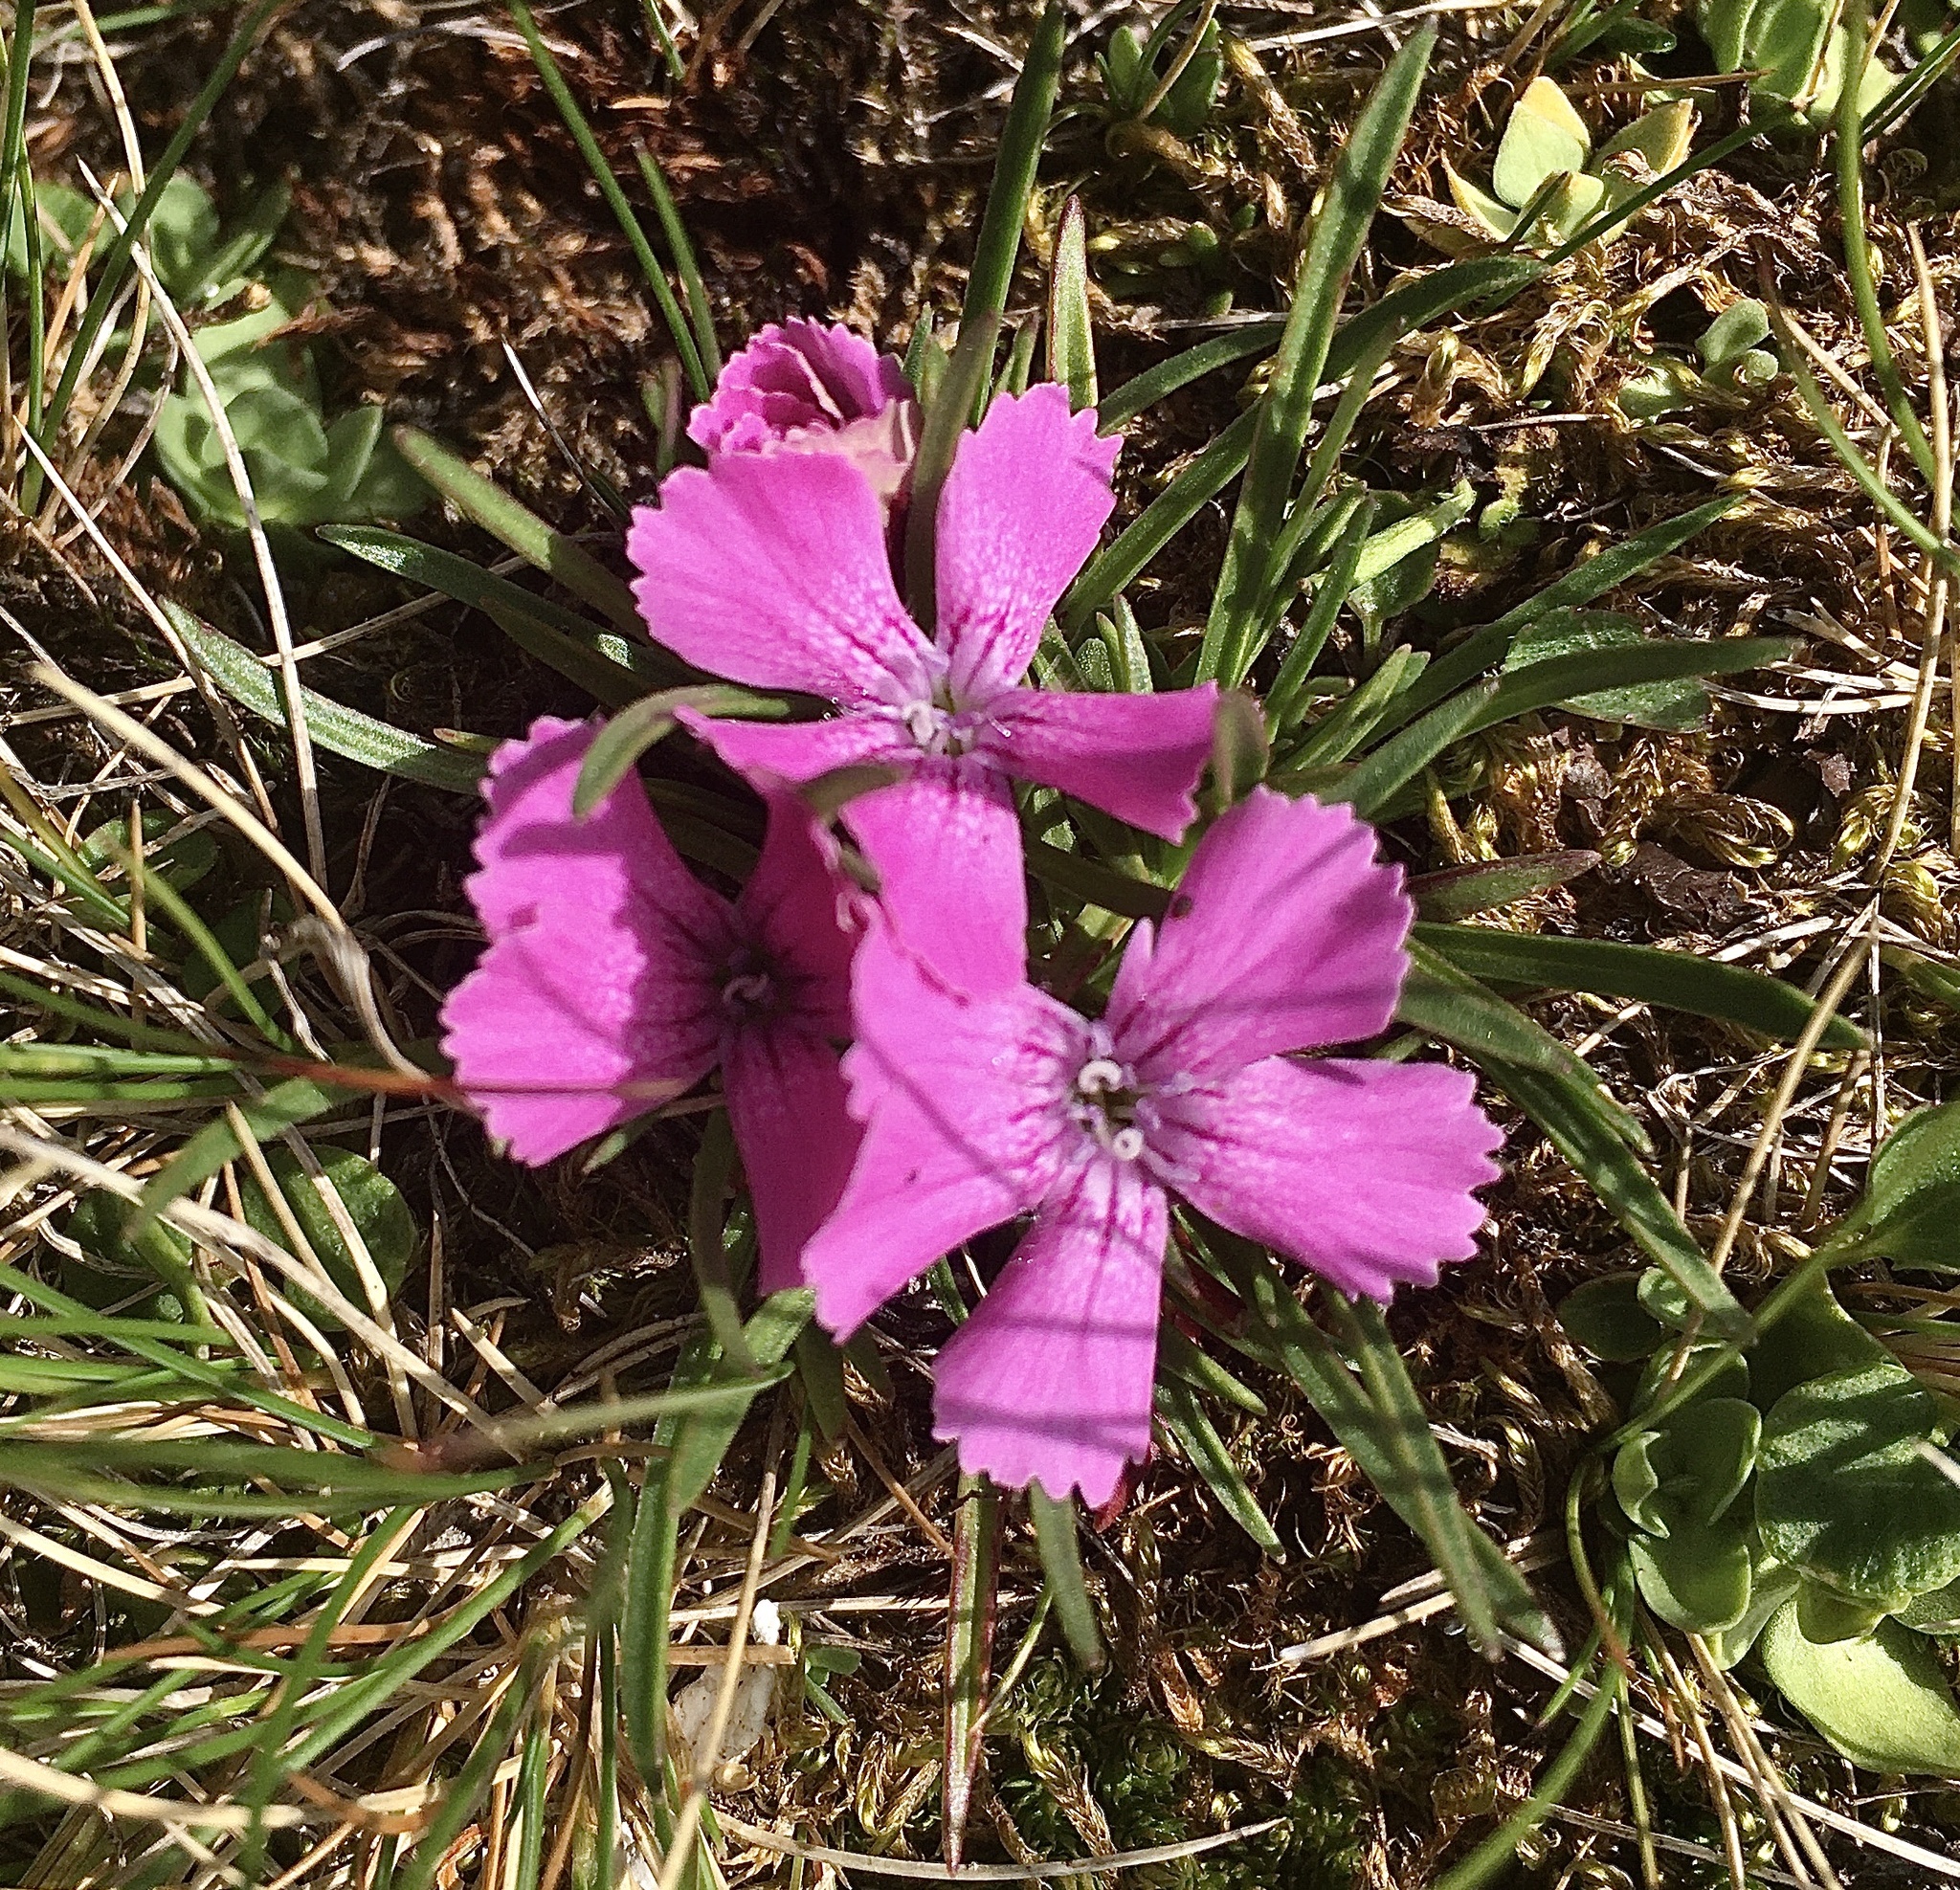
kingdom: Plantae
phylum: Tracheophyta
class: Magnoliopsida
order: Caryophyllales
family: Caryophyllaceae
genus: Dianthus
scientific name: Dianthus glacialis
